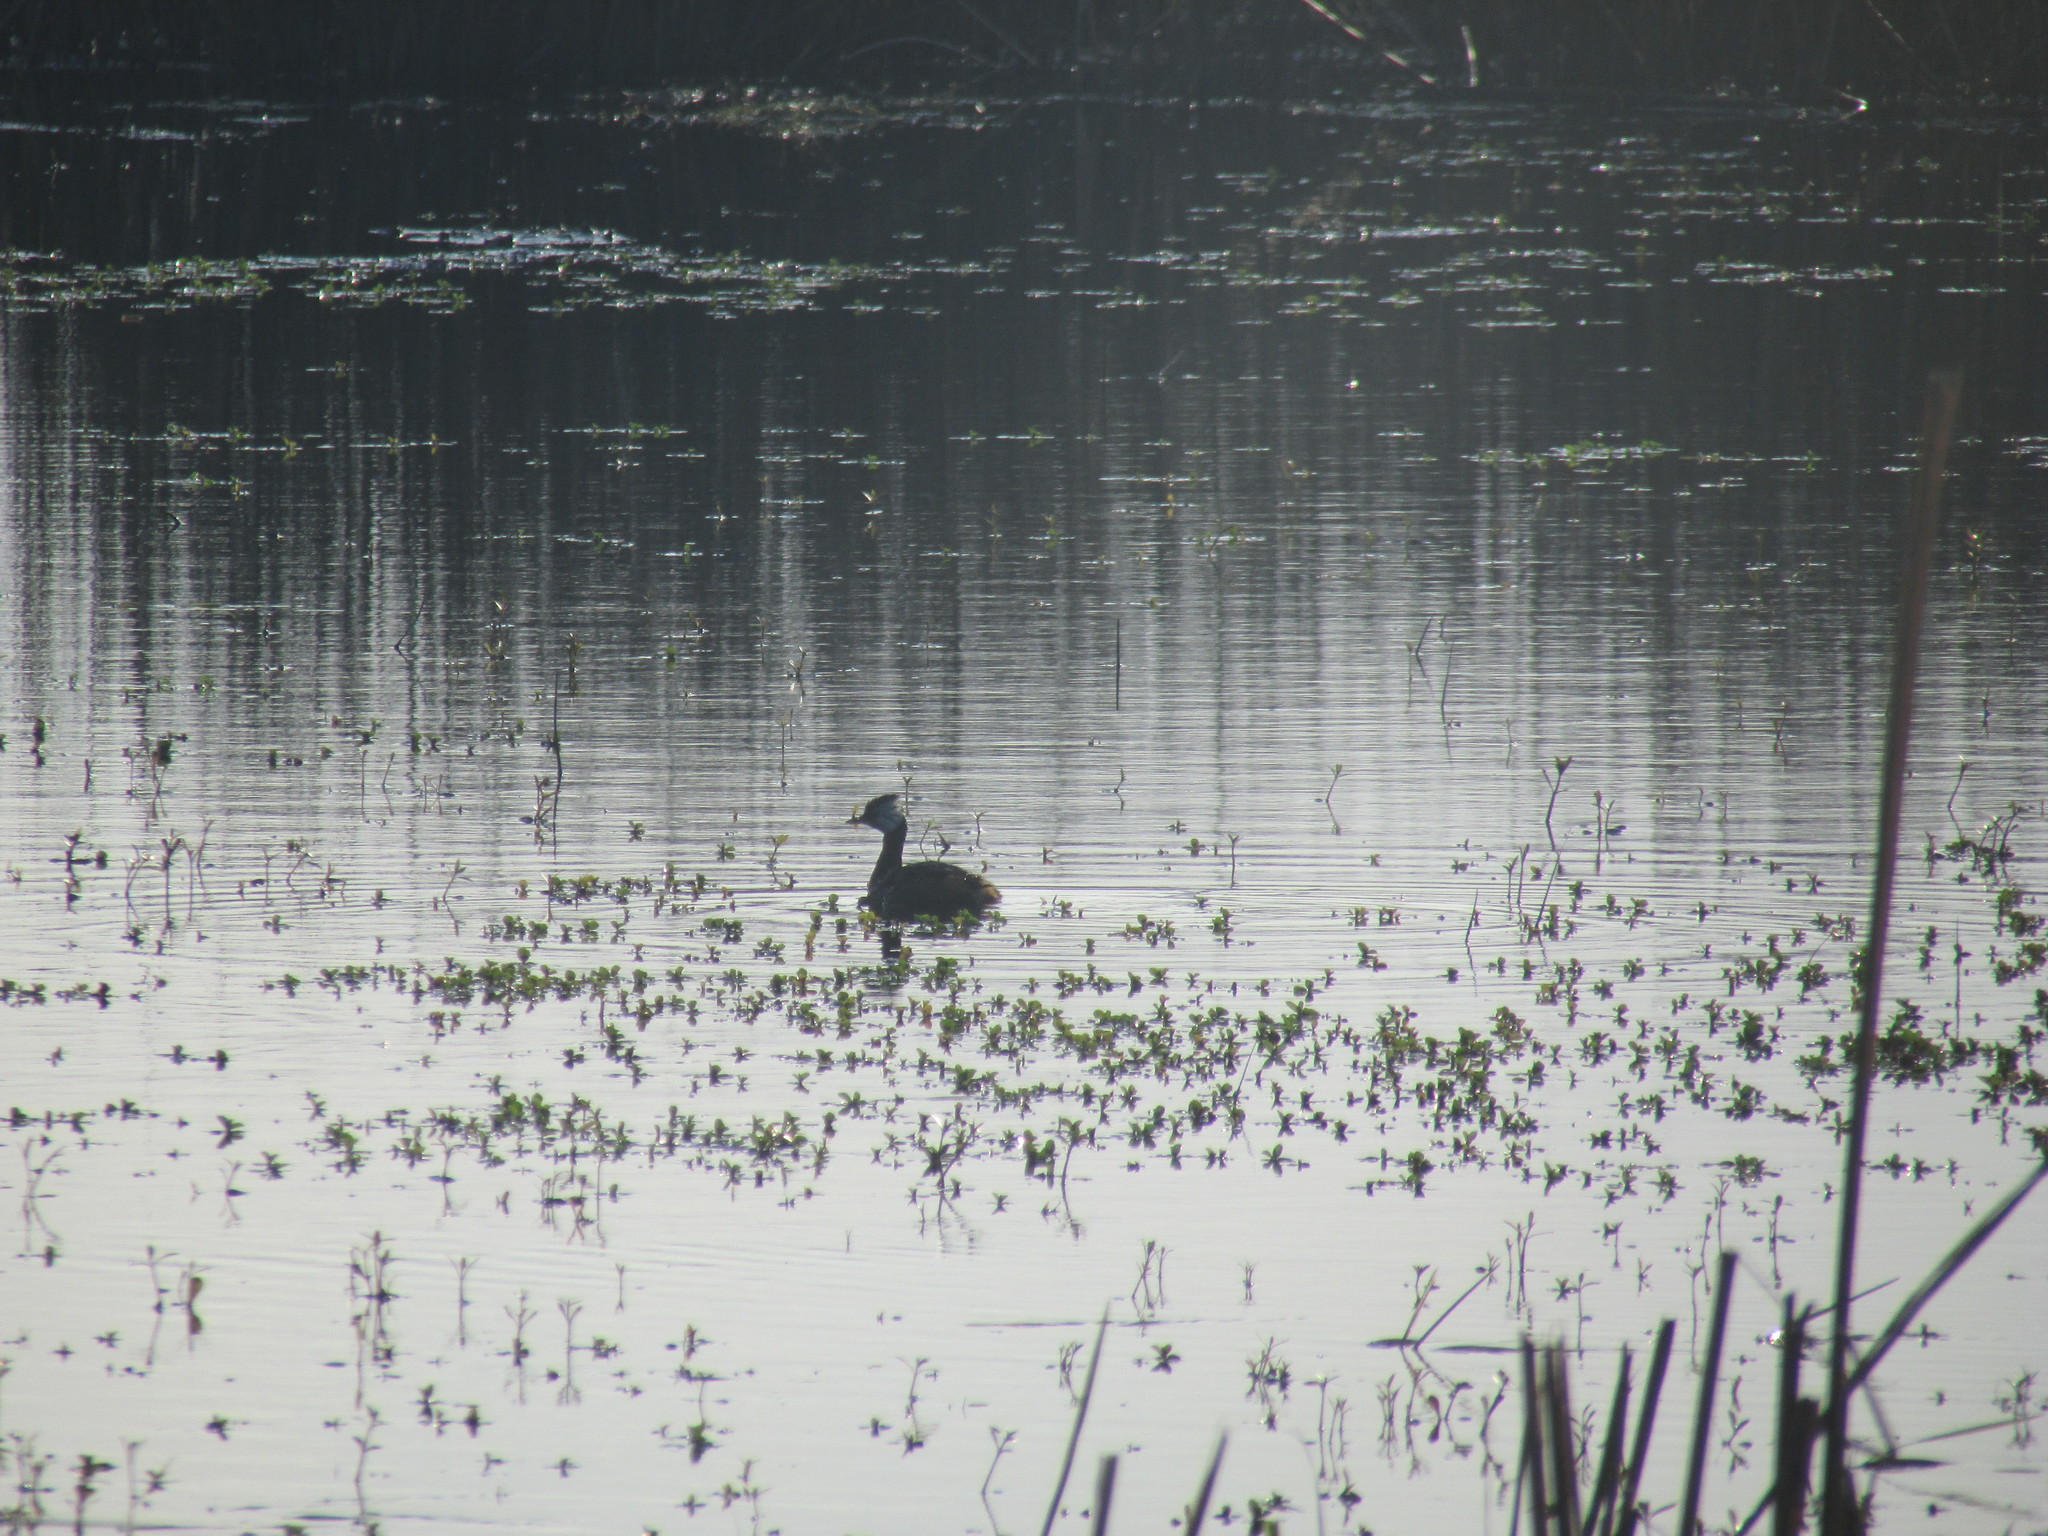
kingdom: Animalia
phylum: Chordata
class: Aves
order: Podicipediformes
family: Podicipedidae
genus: Rollandia
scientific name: Rollandia rolland
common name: White-tufted grebe
